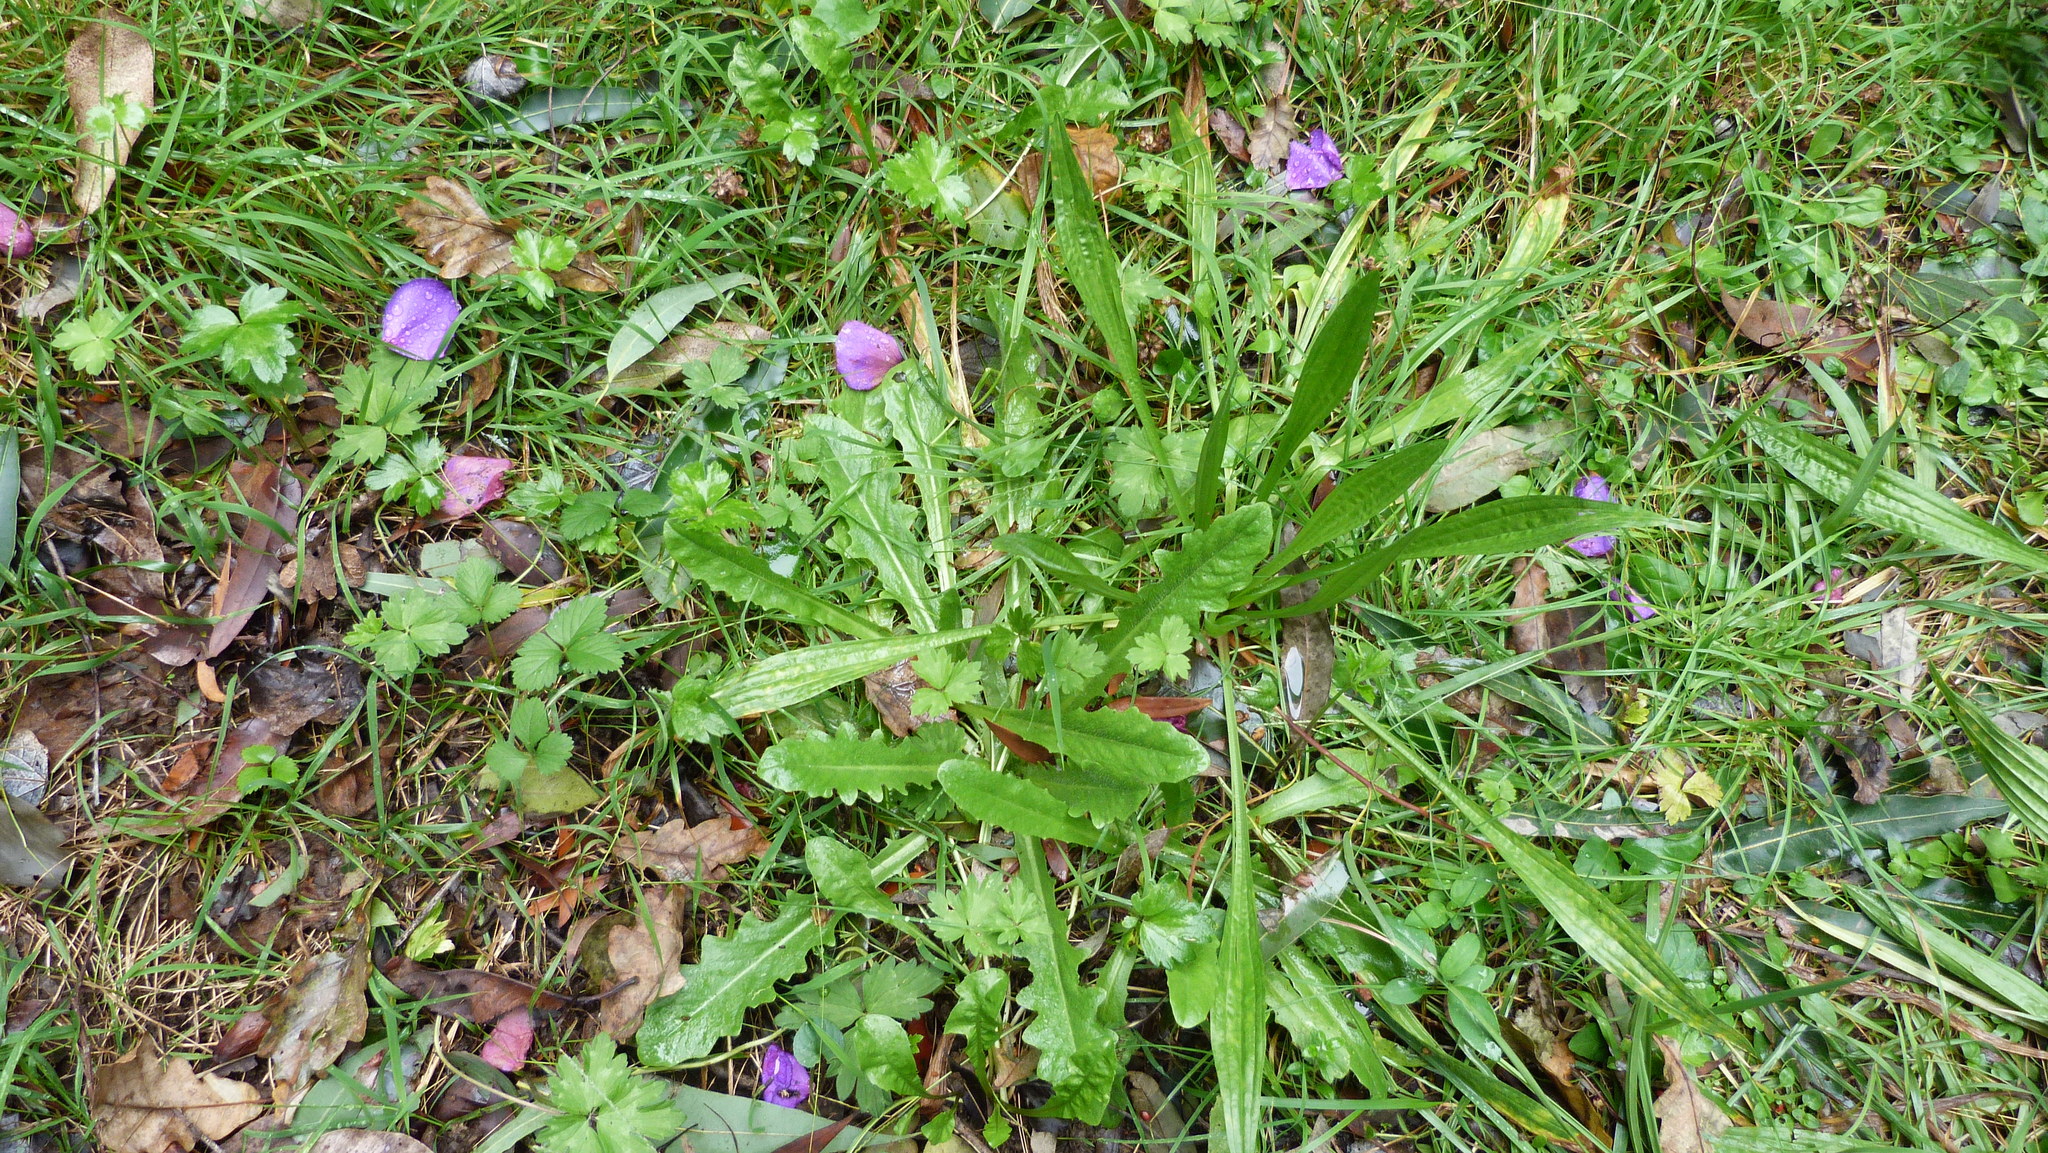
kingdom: Plantae
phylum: Tracheophyta
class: Magnoliopsida
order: Ranunculales
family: Ranunculaceae
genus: Ranunculus
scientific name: Ranunculus repens
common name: Creeping buttercup
